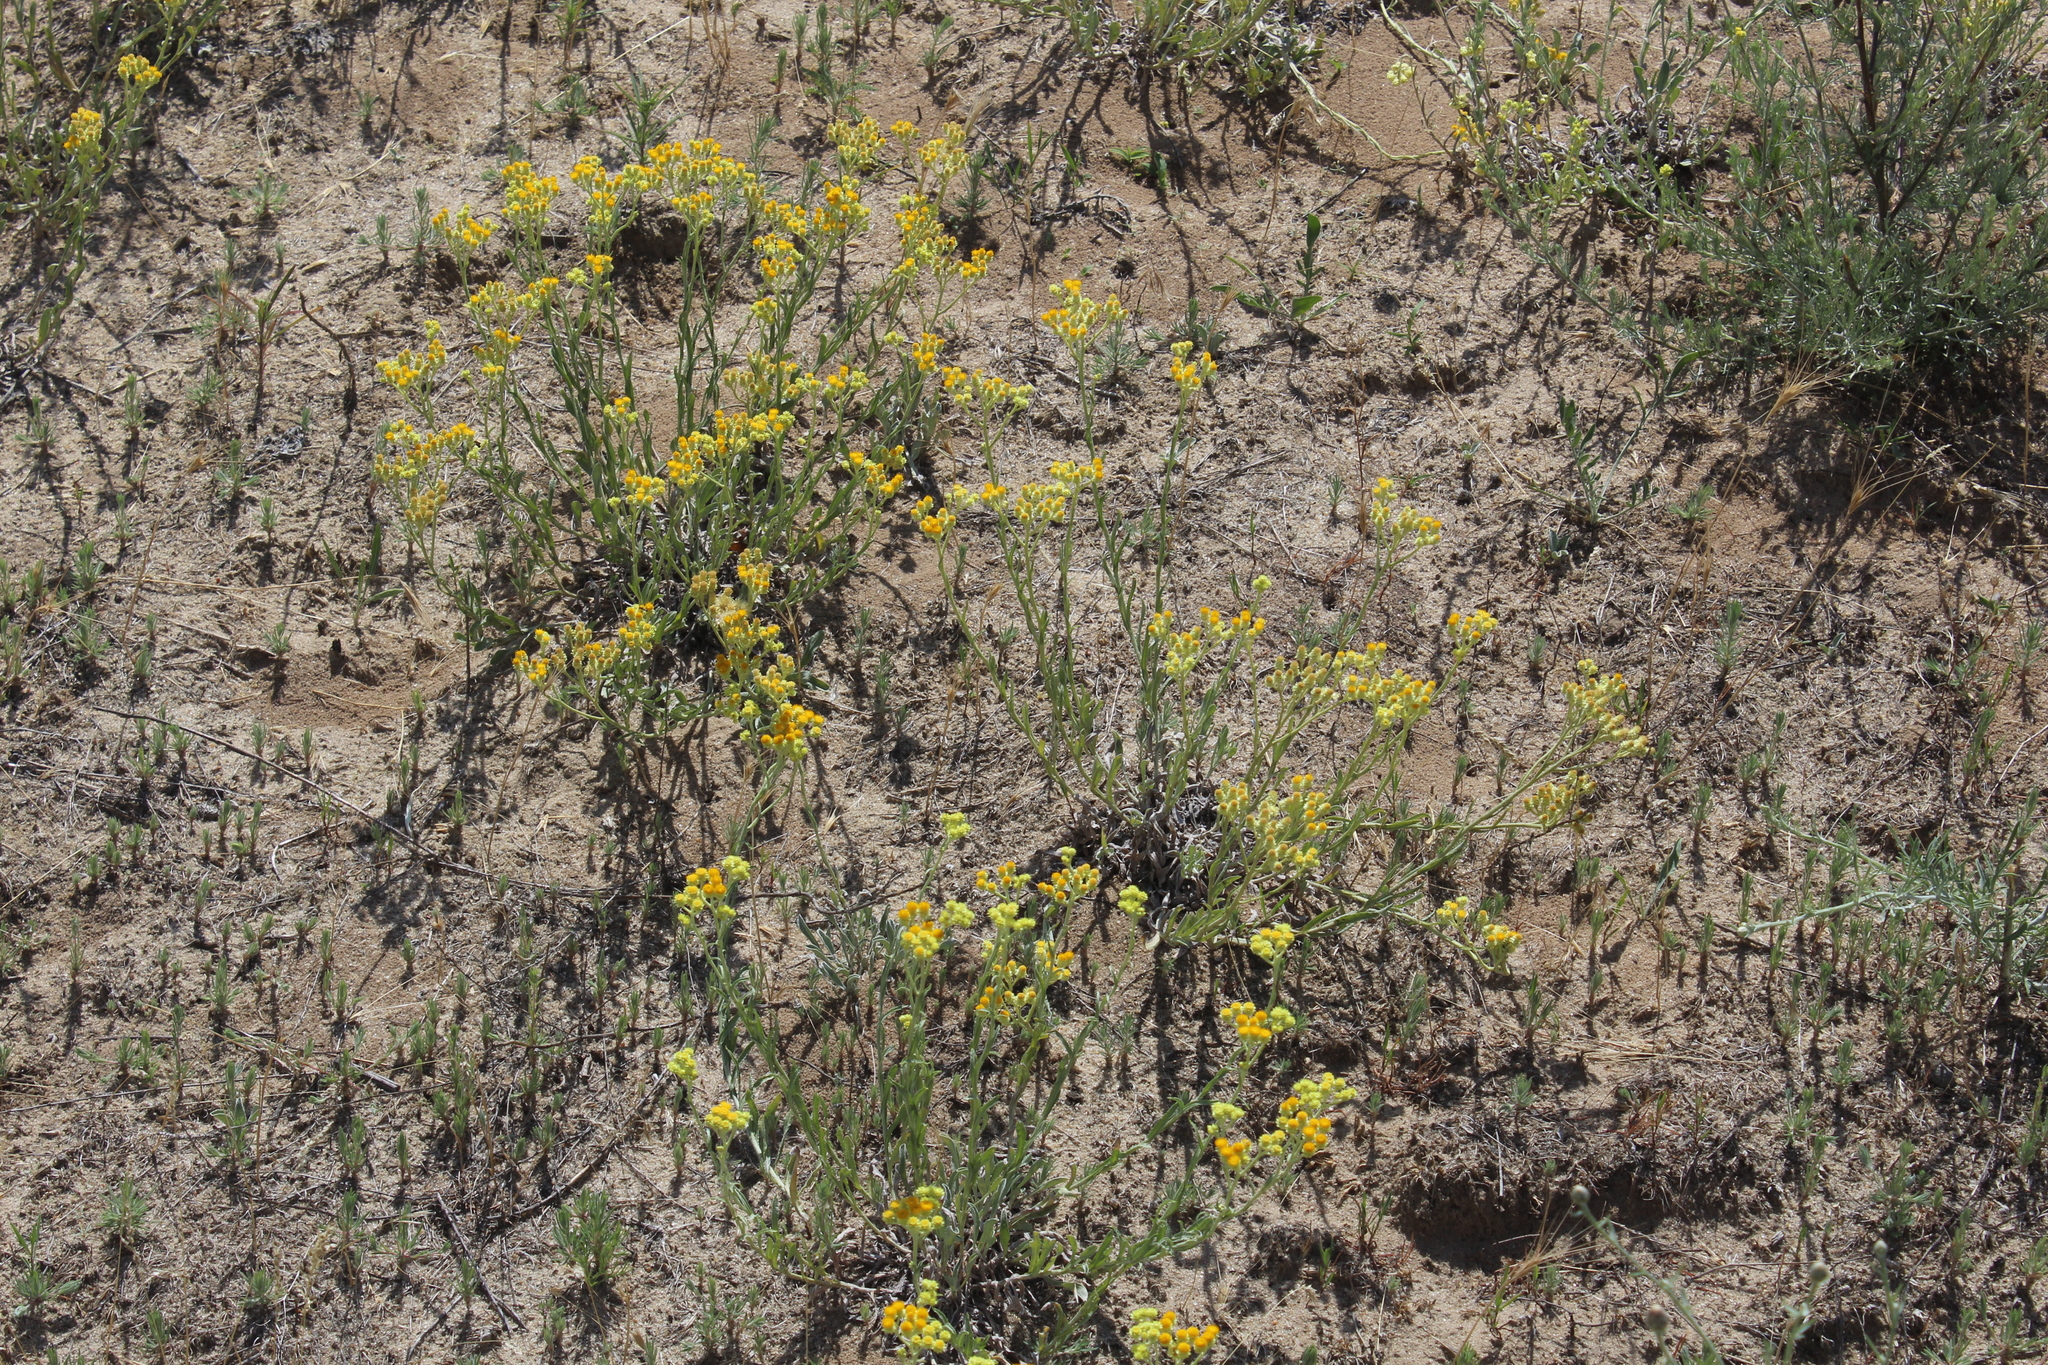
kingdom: Plantae
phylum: Tracheophyta
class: Magnoliopsida
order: Asterales
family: Asteraceae
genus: Helichrysum
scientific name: Helichrysum arenarium
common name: Strawflower
